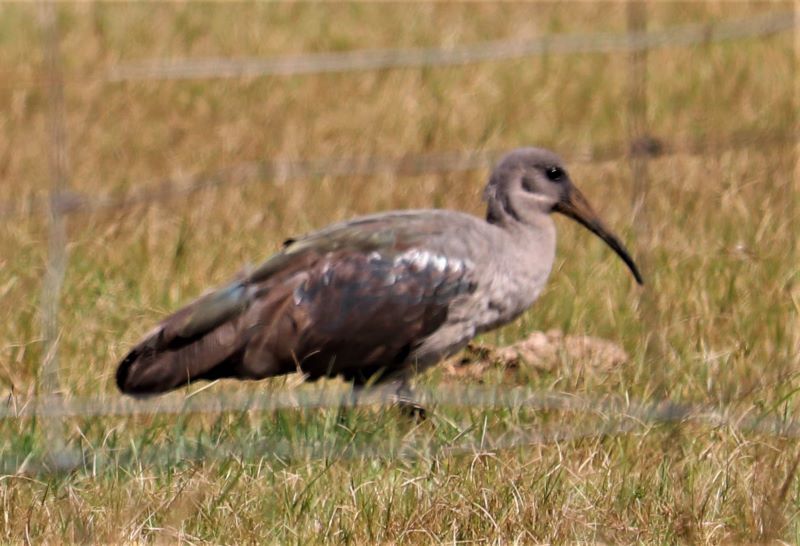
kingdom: Animalia
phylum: Chordata
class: Aves
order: Pelecaniformes
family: Threskiornithidae
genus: Bostrychia
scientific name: Bostrychia hagedash
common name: Hadada ibis
